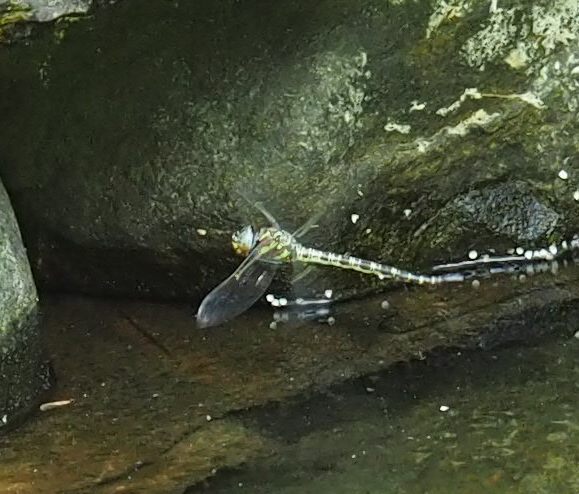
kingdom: Animalia
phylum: Arthropoda
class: Insecta
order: Odonata
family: Aeshnidae
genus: Epiaeschna
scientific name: Epiaeschna heros
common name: Swamp darner
